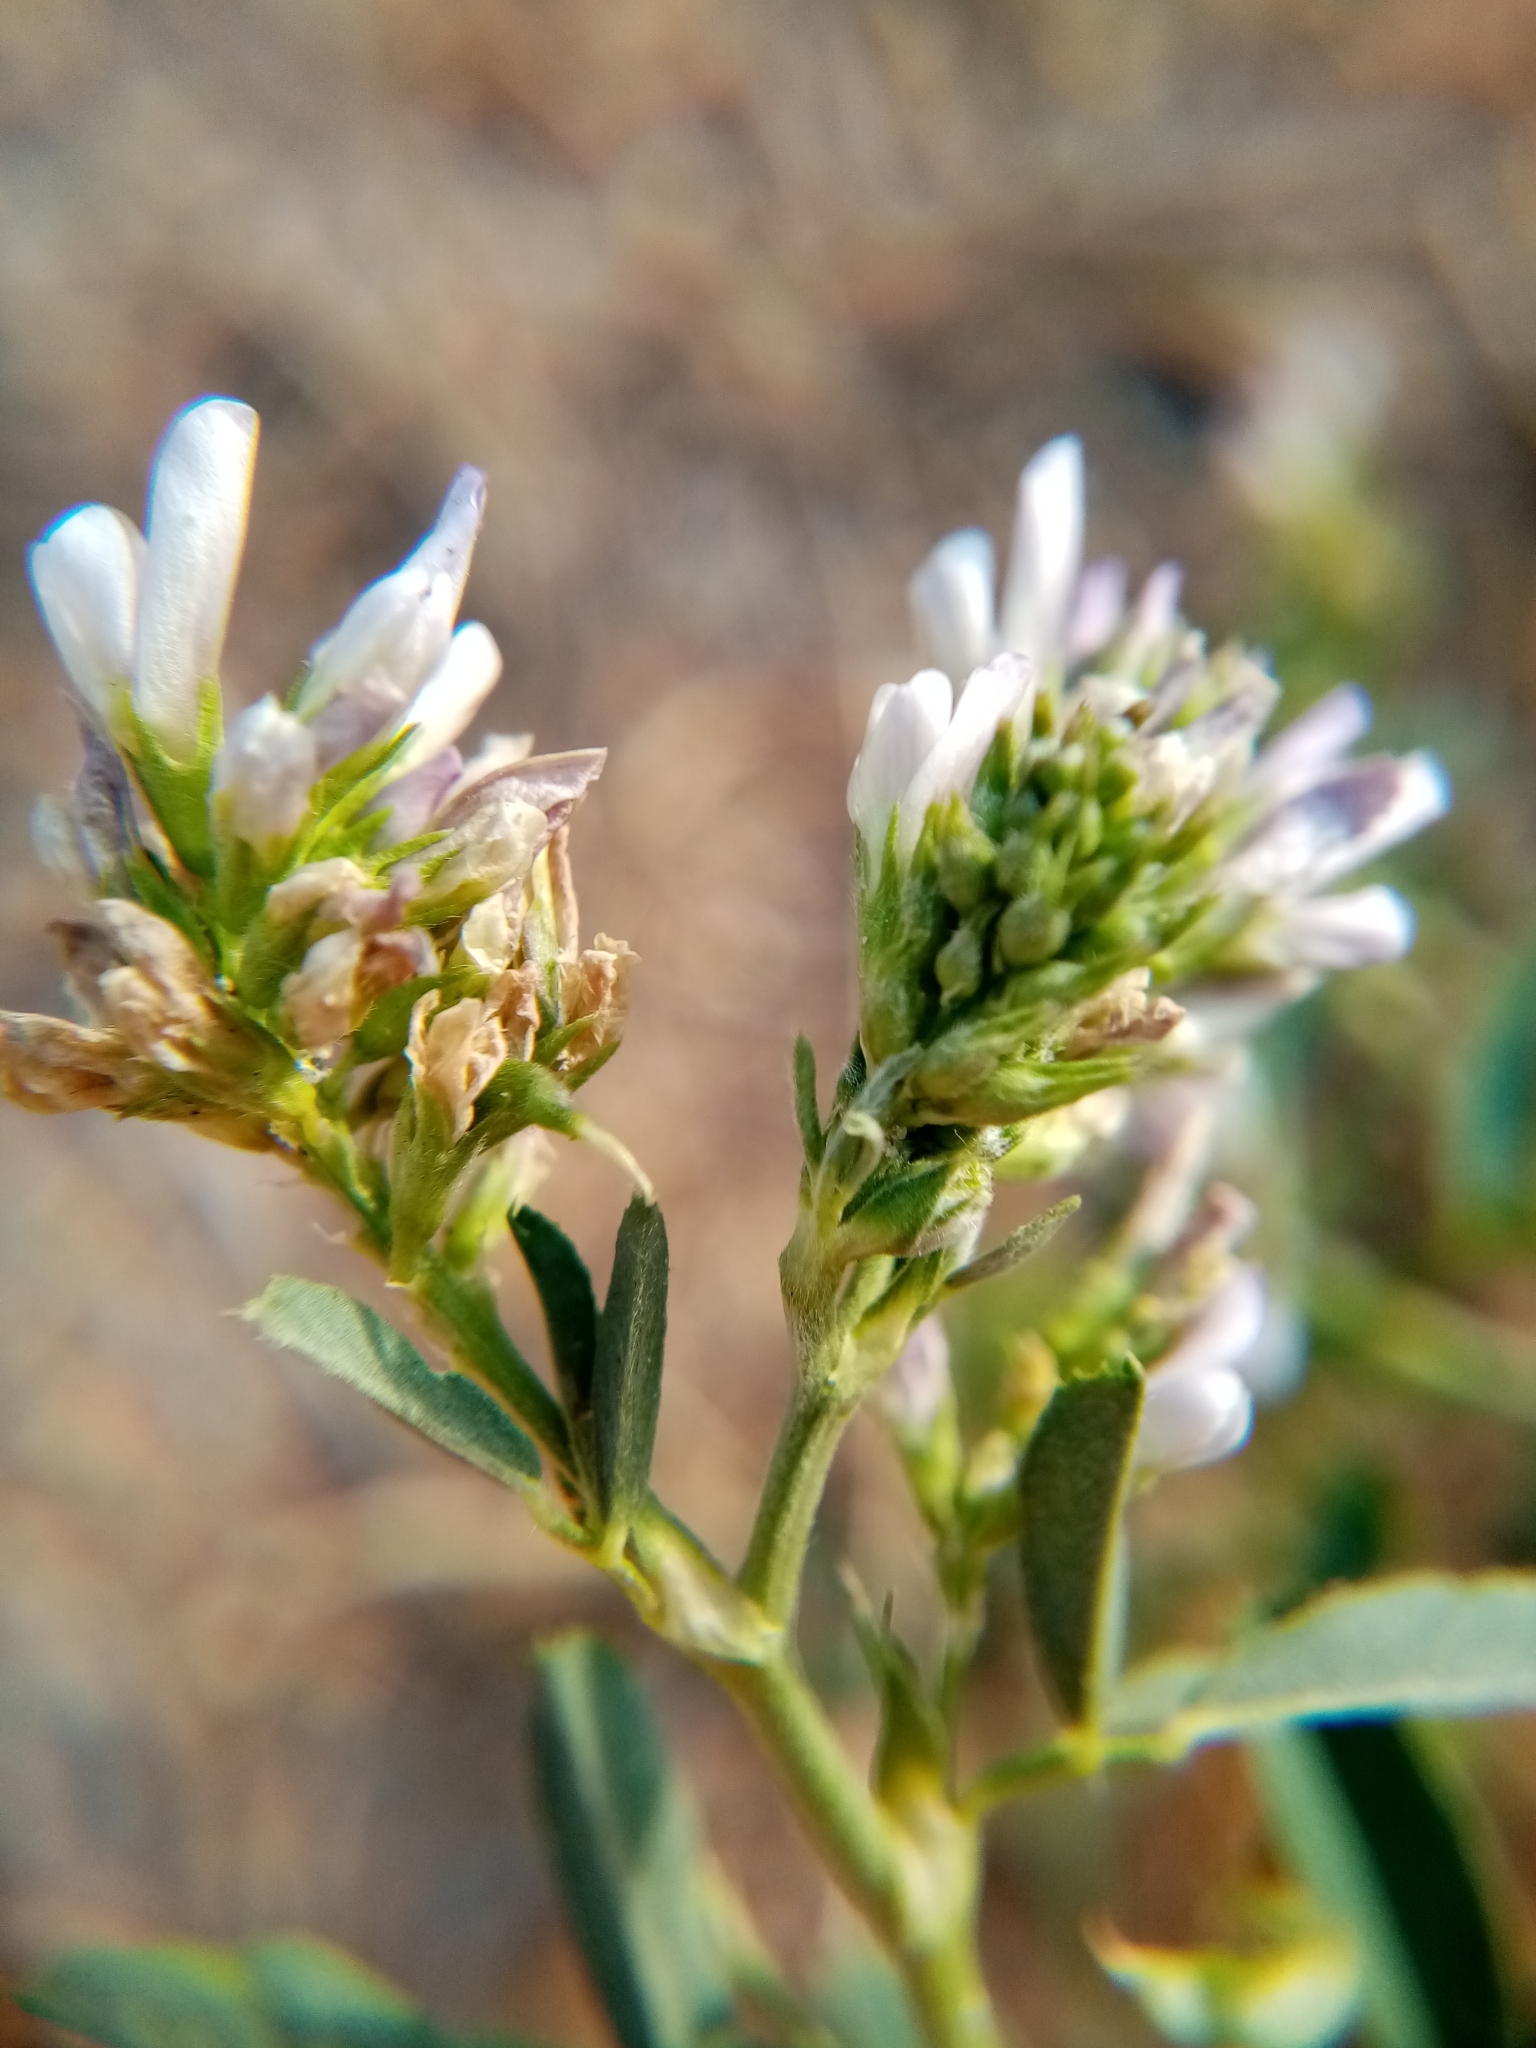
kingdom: Plantae
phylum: Tracheophyta
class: Magnoliopsida
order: Fabales
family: Fabaceae
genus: Medicago
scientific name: Medicago varia
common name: Sand lucerne
